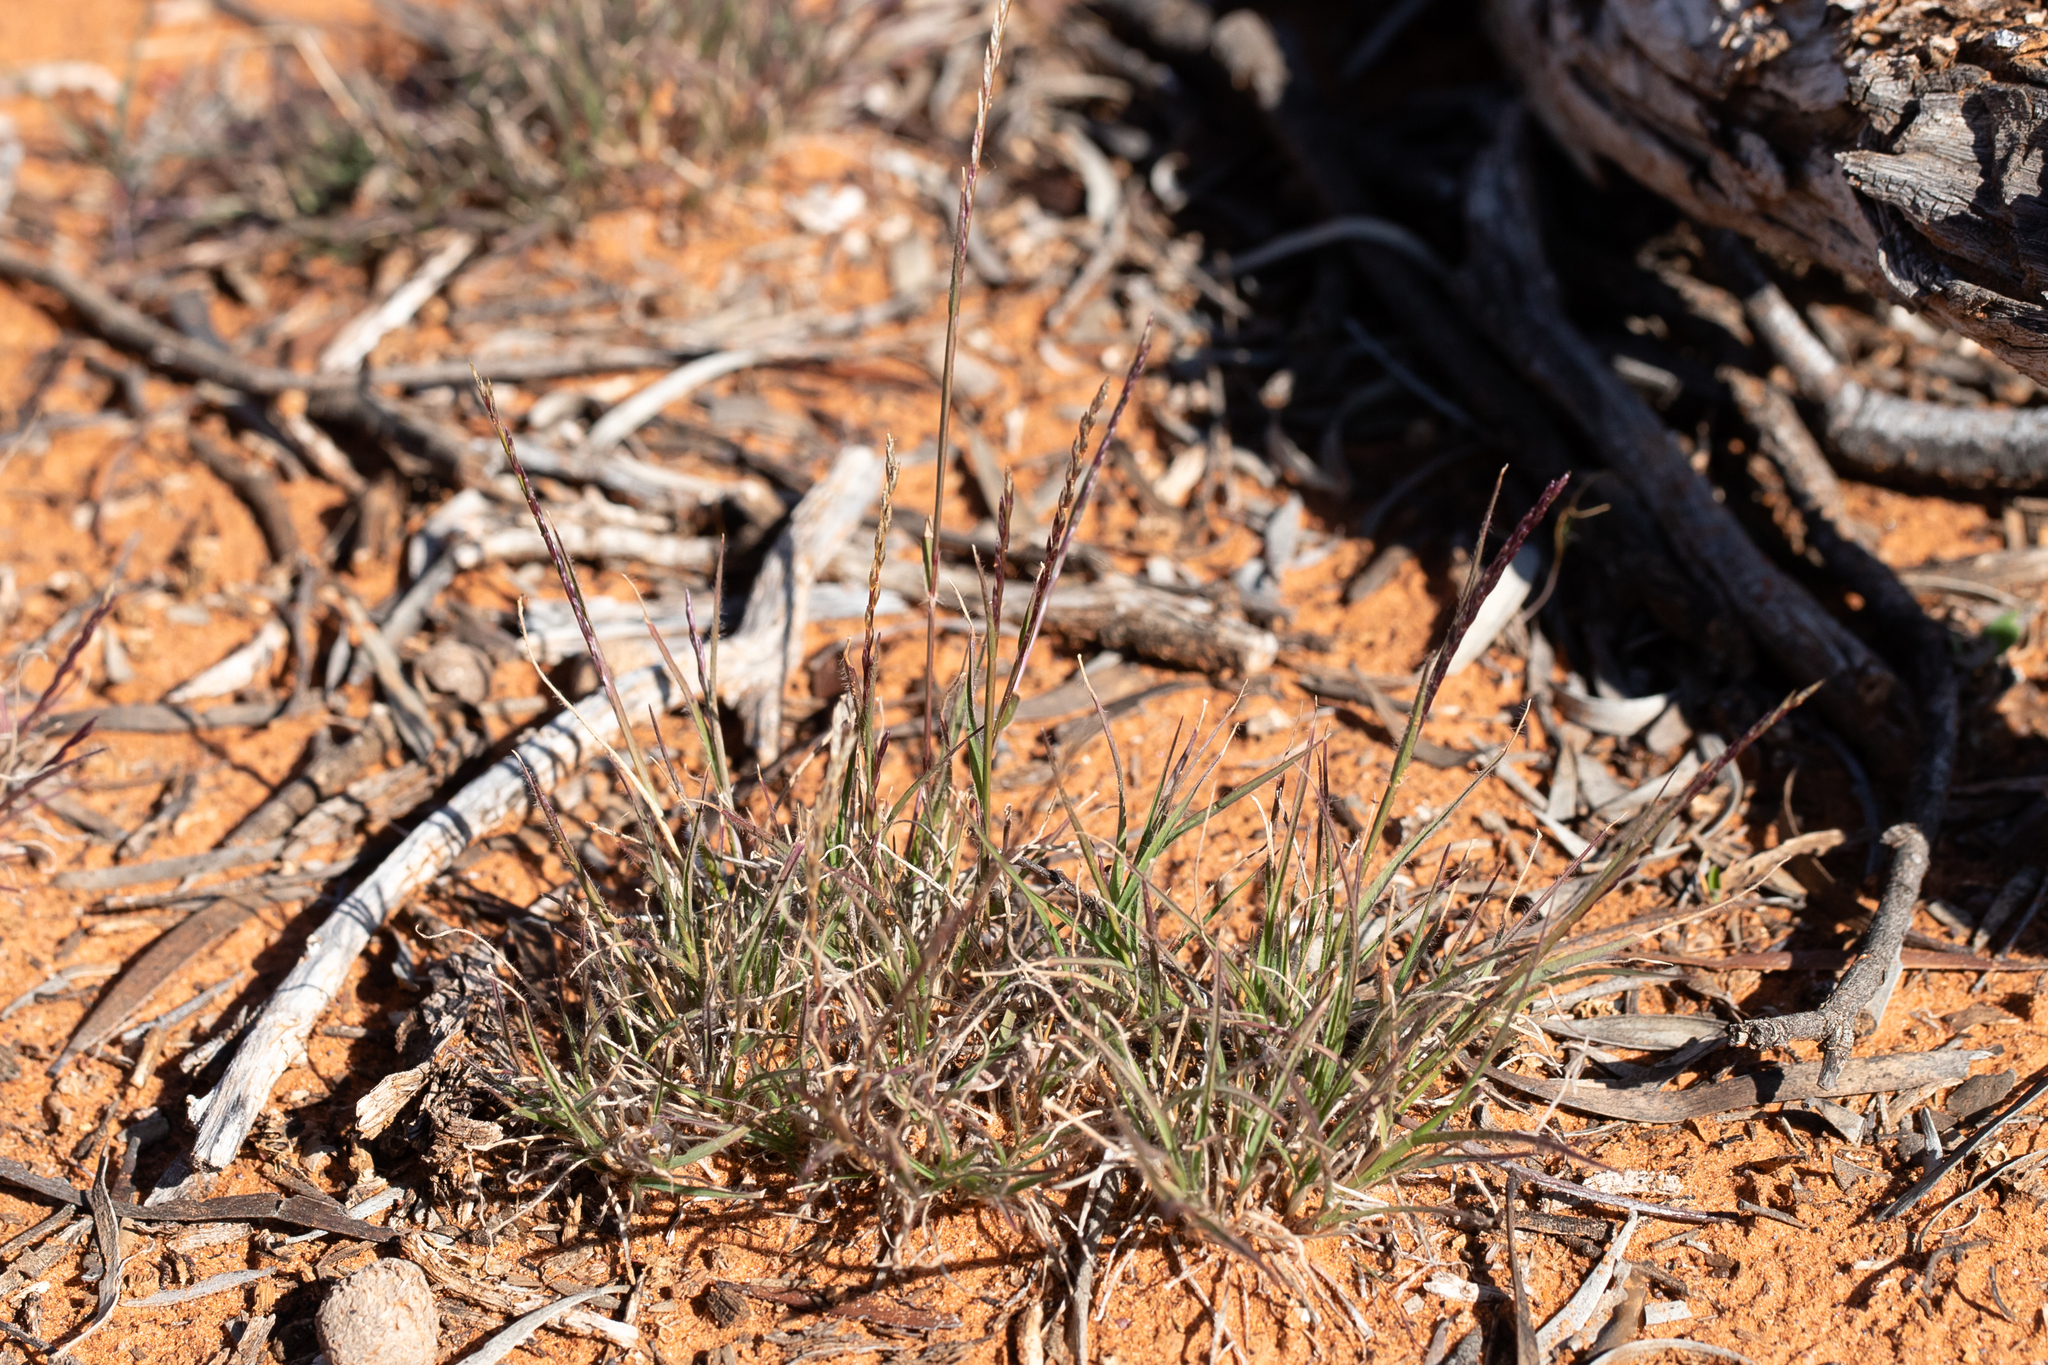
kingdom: Plantae
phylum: Tracheophyta
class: Liliopsida
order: Poales
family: Poaceae
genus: Tripogonella
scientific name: Tripogonella loliiformis
